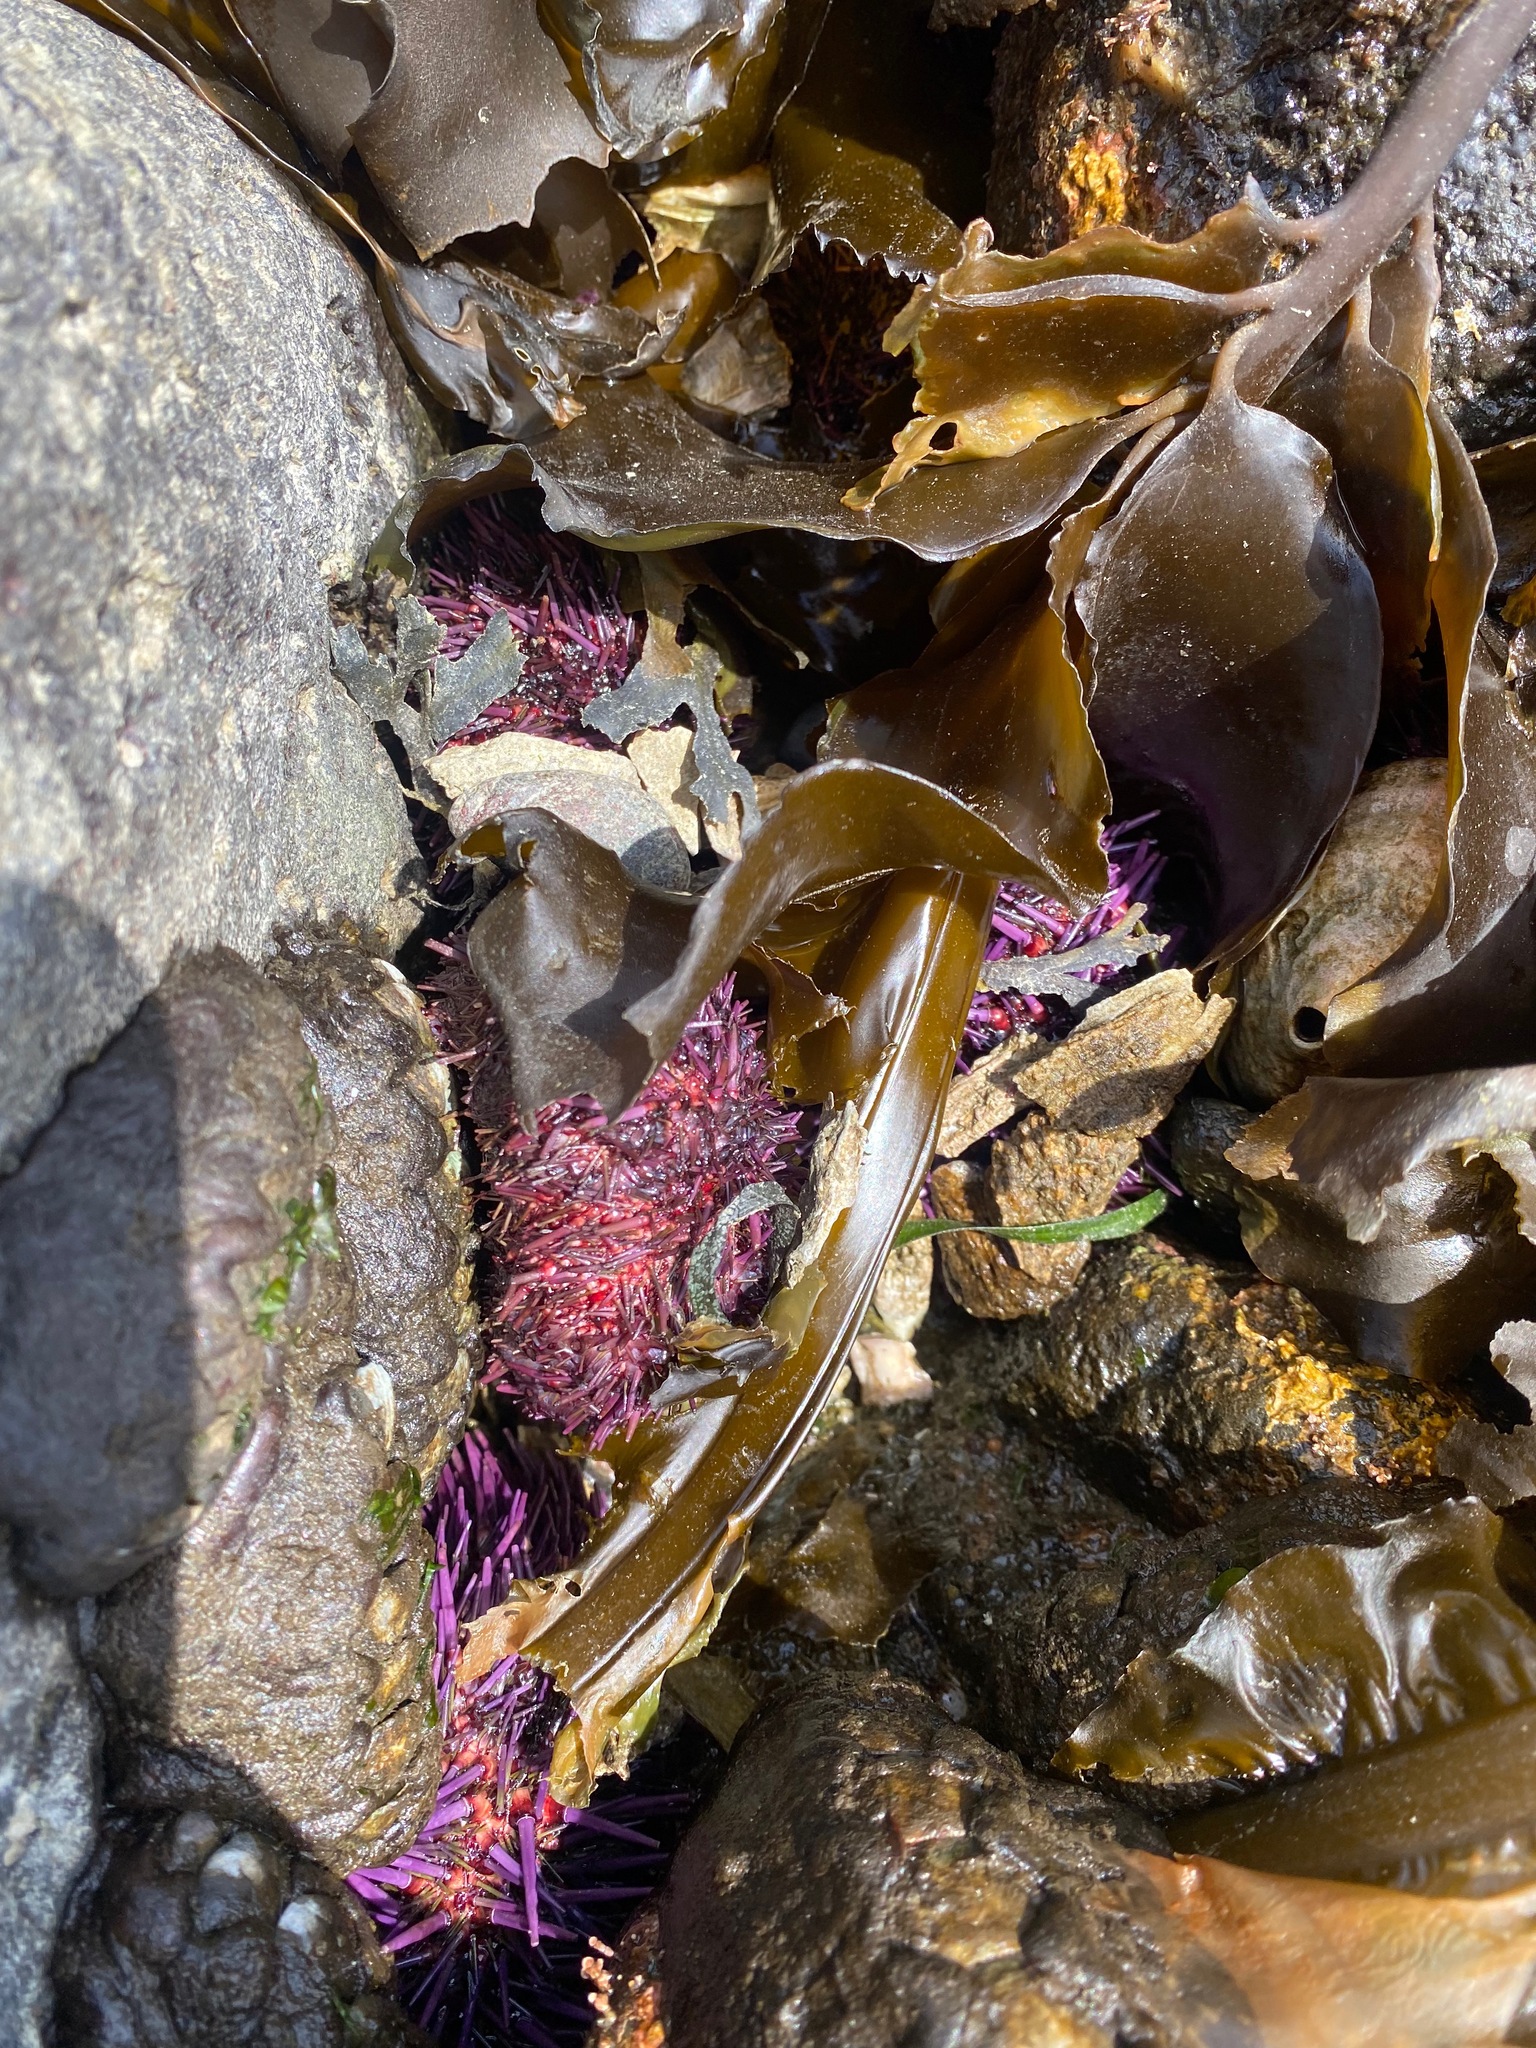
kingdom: Animalia
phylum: Echinodermata
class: Echinoidea
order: Camarodonta
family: Strongylocentrotidae
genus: Strongylocentrotus
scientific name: Strongylocentrotus purpuratus
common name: Purple sea urchin
